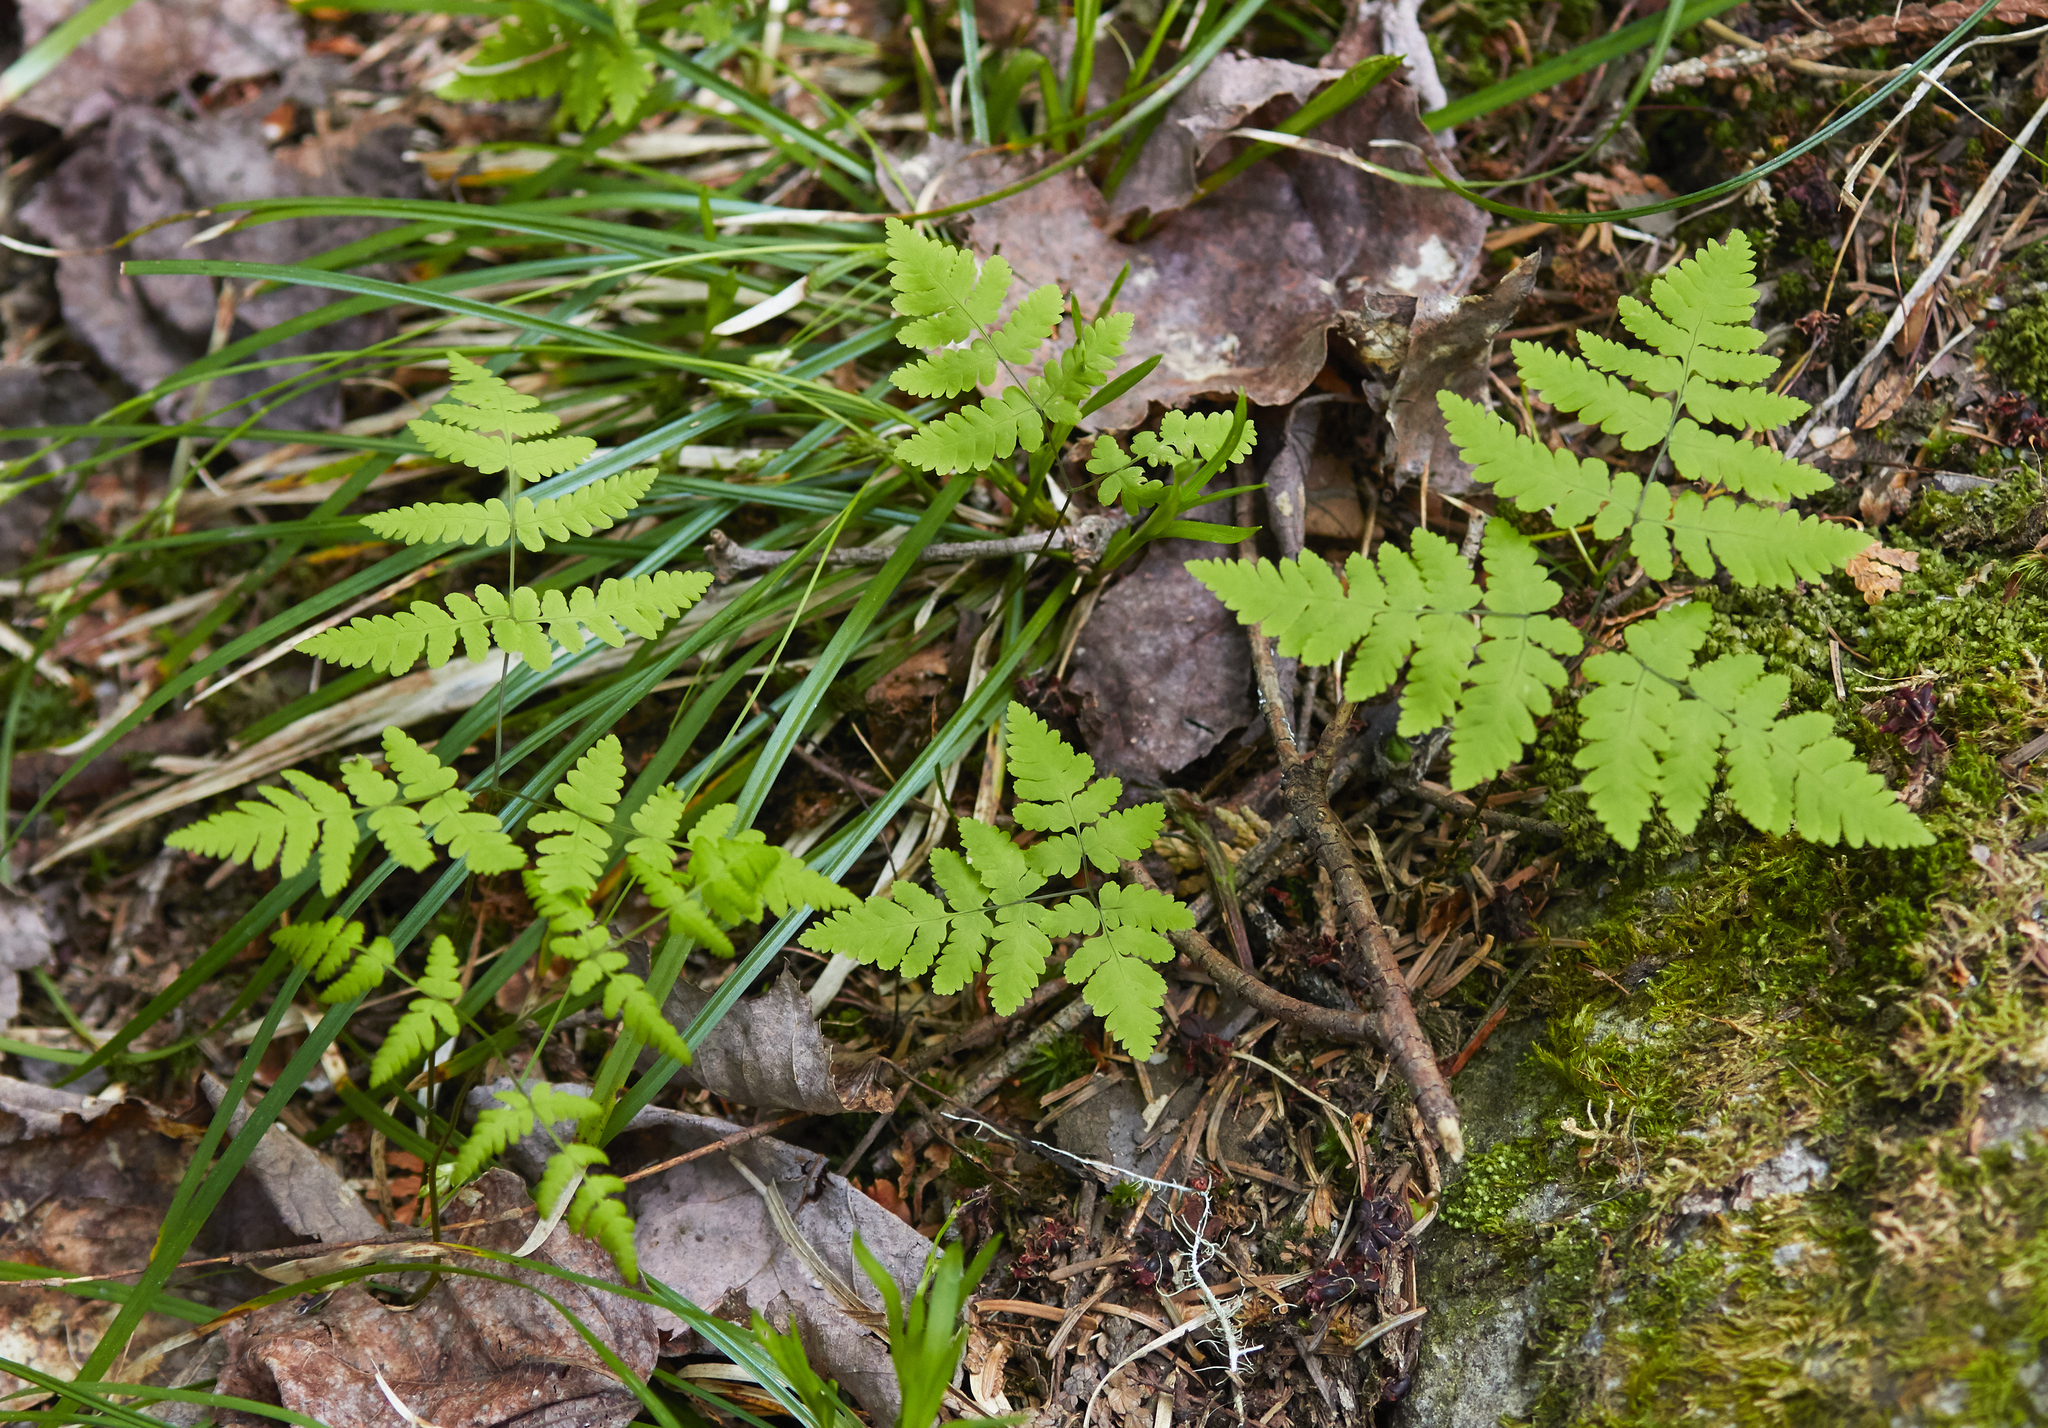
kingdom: Plantae
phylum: Tracheophyta
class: Polypodiopsida
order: Polypodiales
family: Cystopteridaceae
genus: Gymnocarpium
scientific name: Gymnocarpium dryopteris
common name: Oak fern
